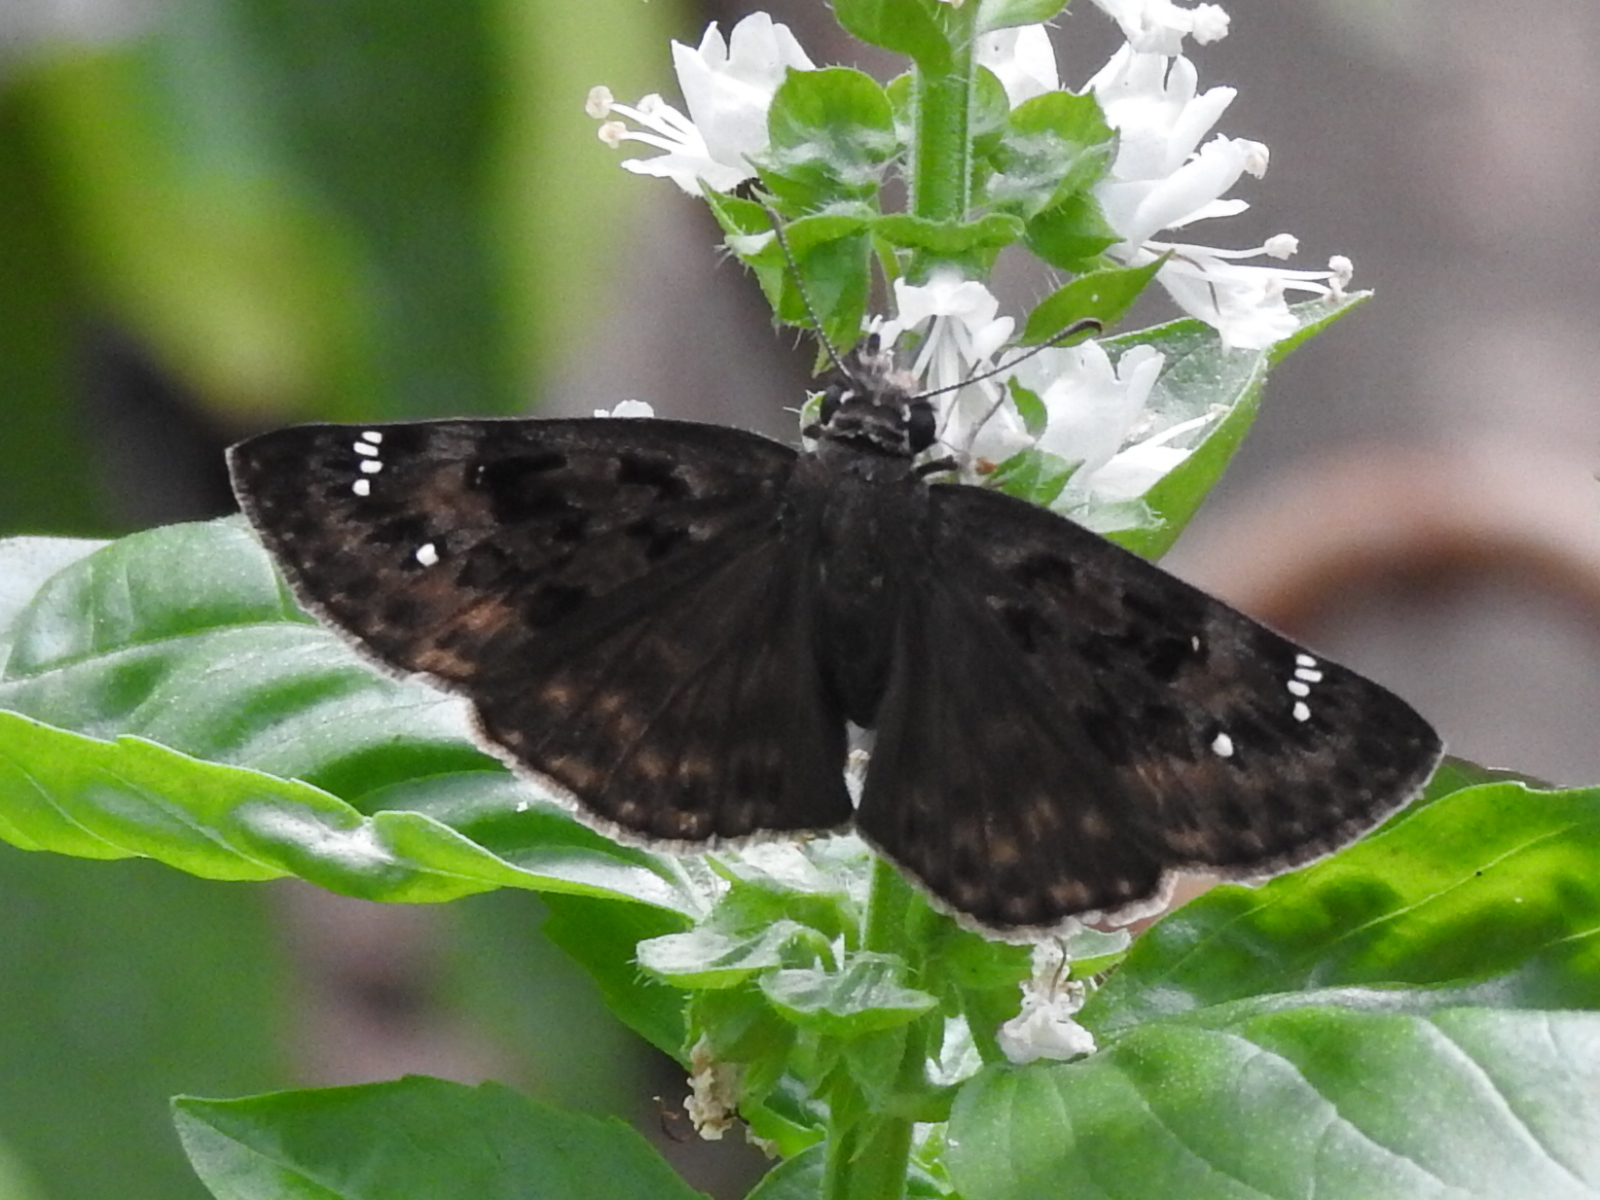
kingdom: Animalia
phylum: Arthropoda
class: Insecta
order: Lepidoptera
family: Hesperiidae
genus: Erynnis
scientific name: Erynnis horatius
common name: Horace's duskywing
